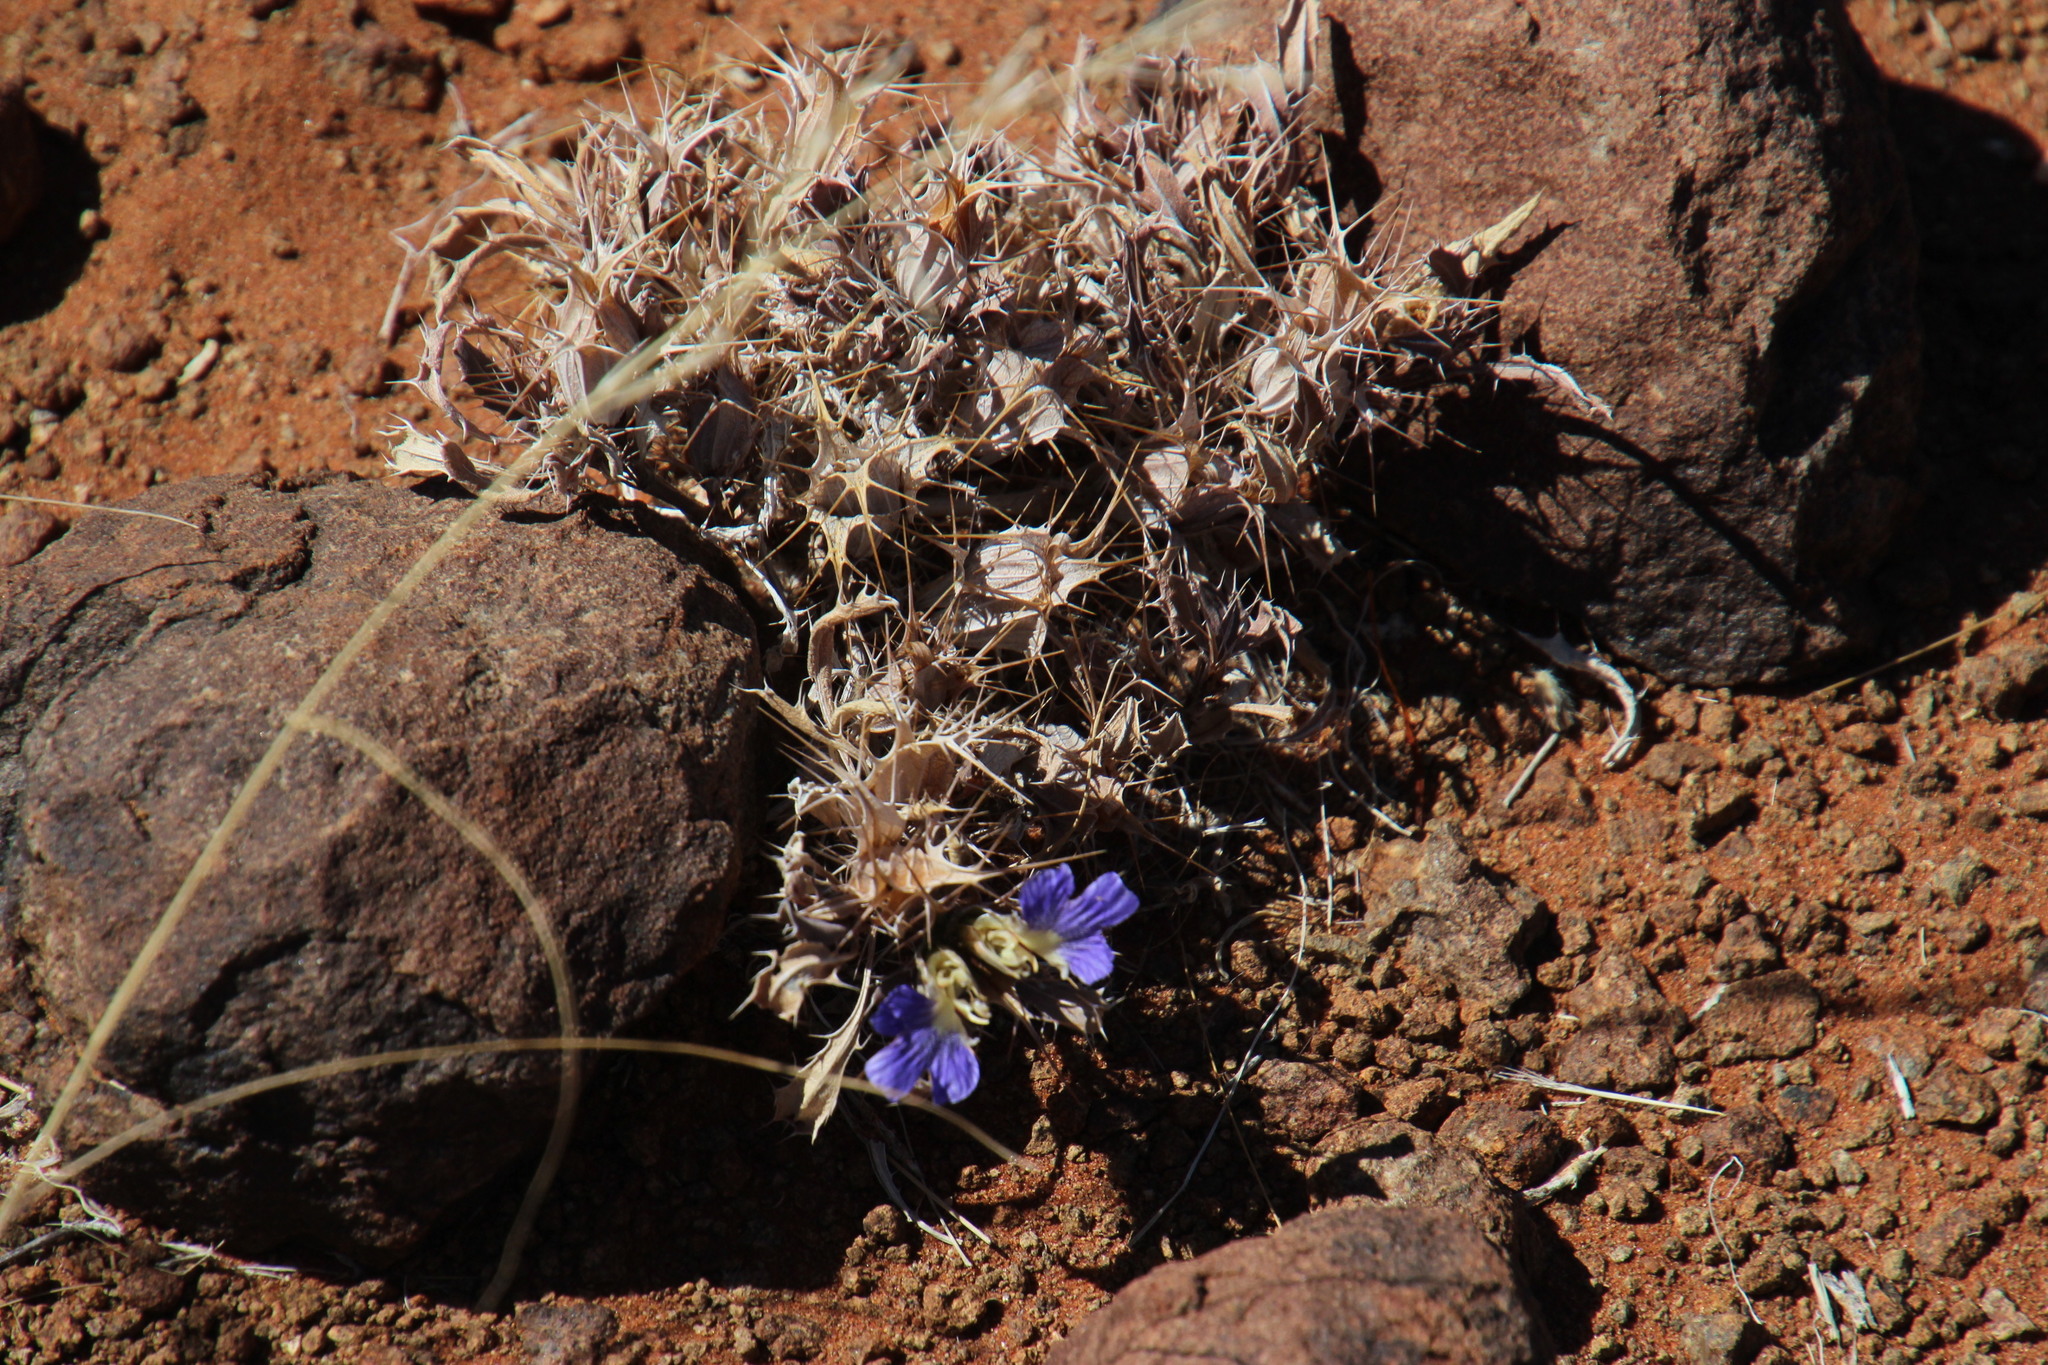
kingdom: Plantae
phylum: Tracheophyta
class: Magnoliopsida
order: Lamiales
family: Acanthaceae
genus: Blepharis
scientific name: Blepharis furcata
